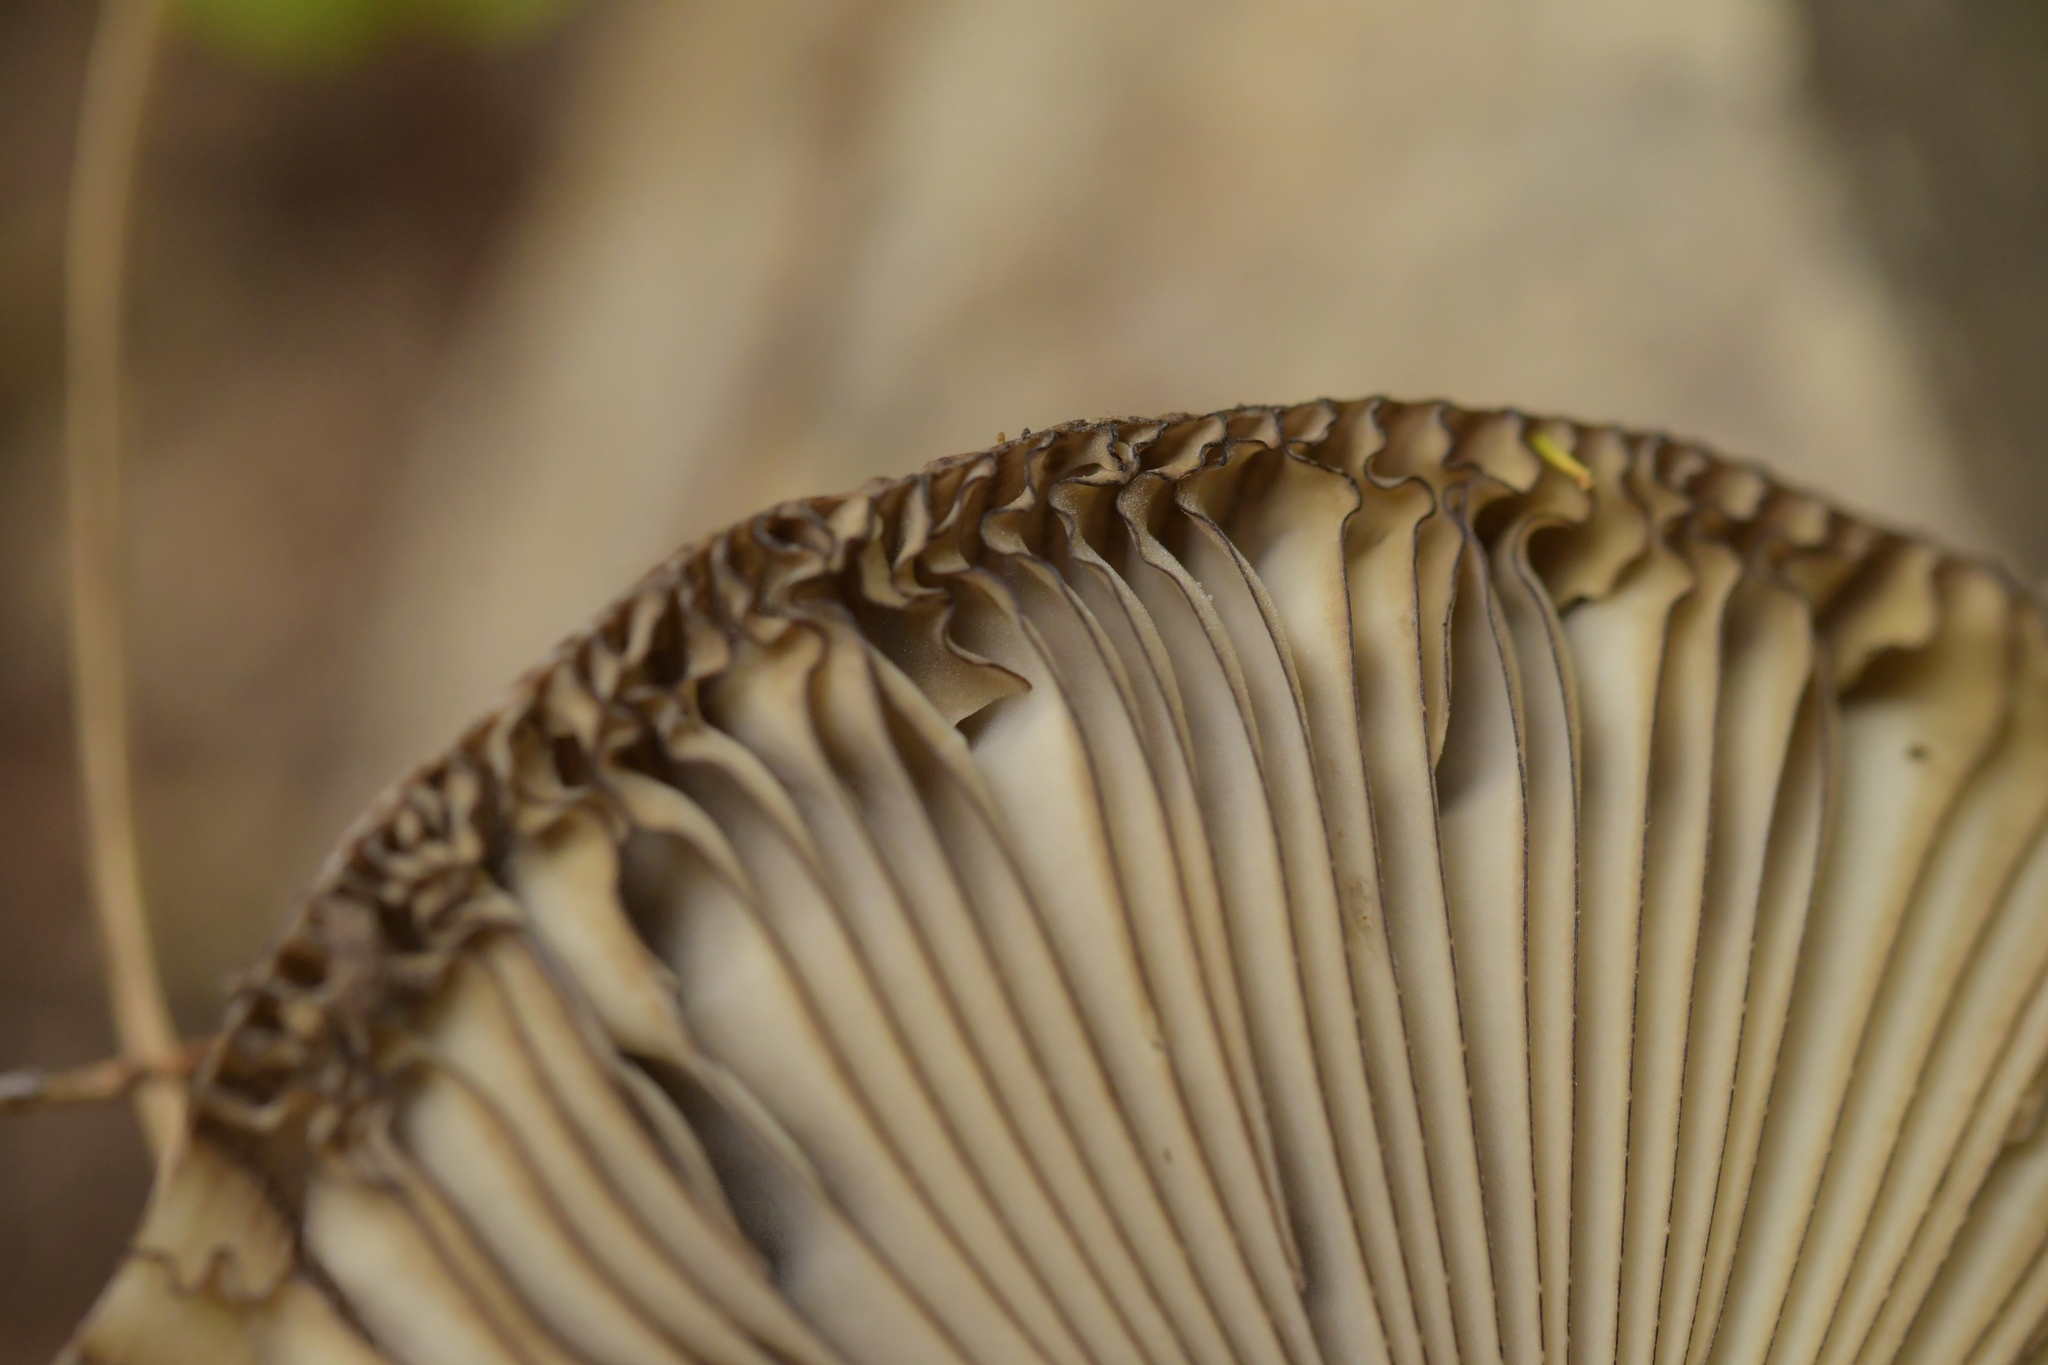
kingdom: Fungi
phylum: Basidiomycota
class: Agaricomycetes
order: Agaricales
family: Amanitaceae
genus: Amanita
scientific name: Amanita pekeoides
